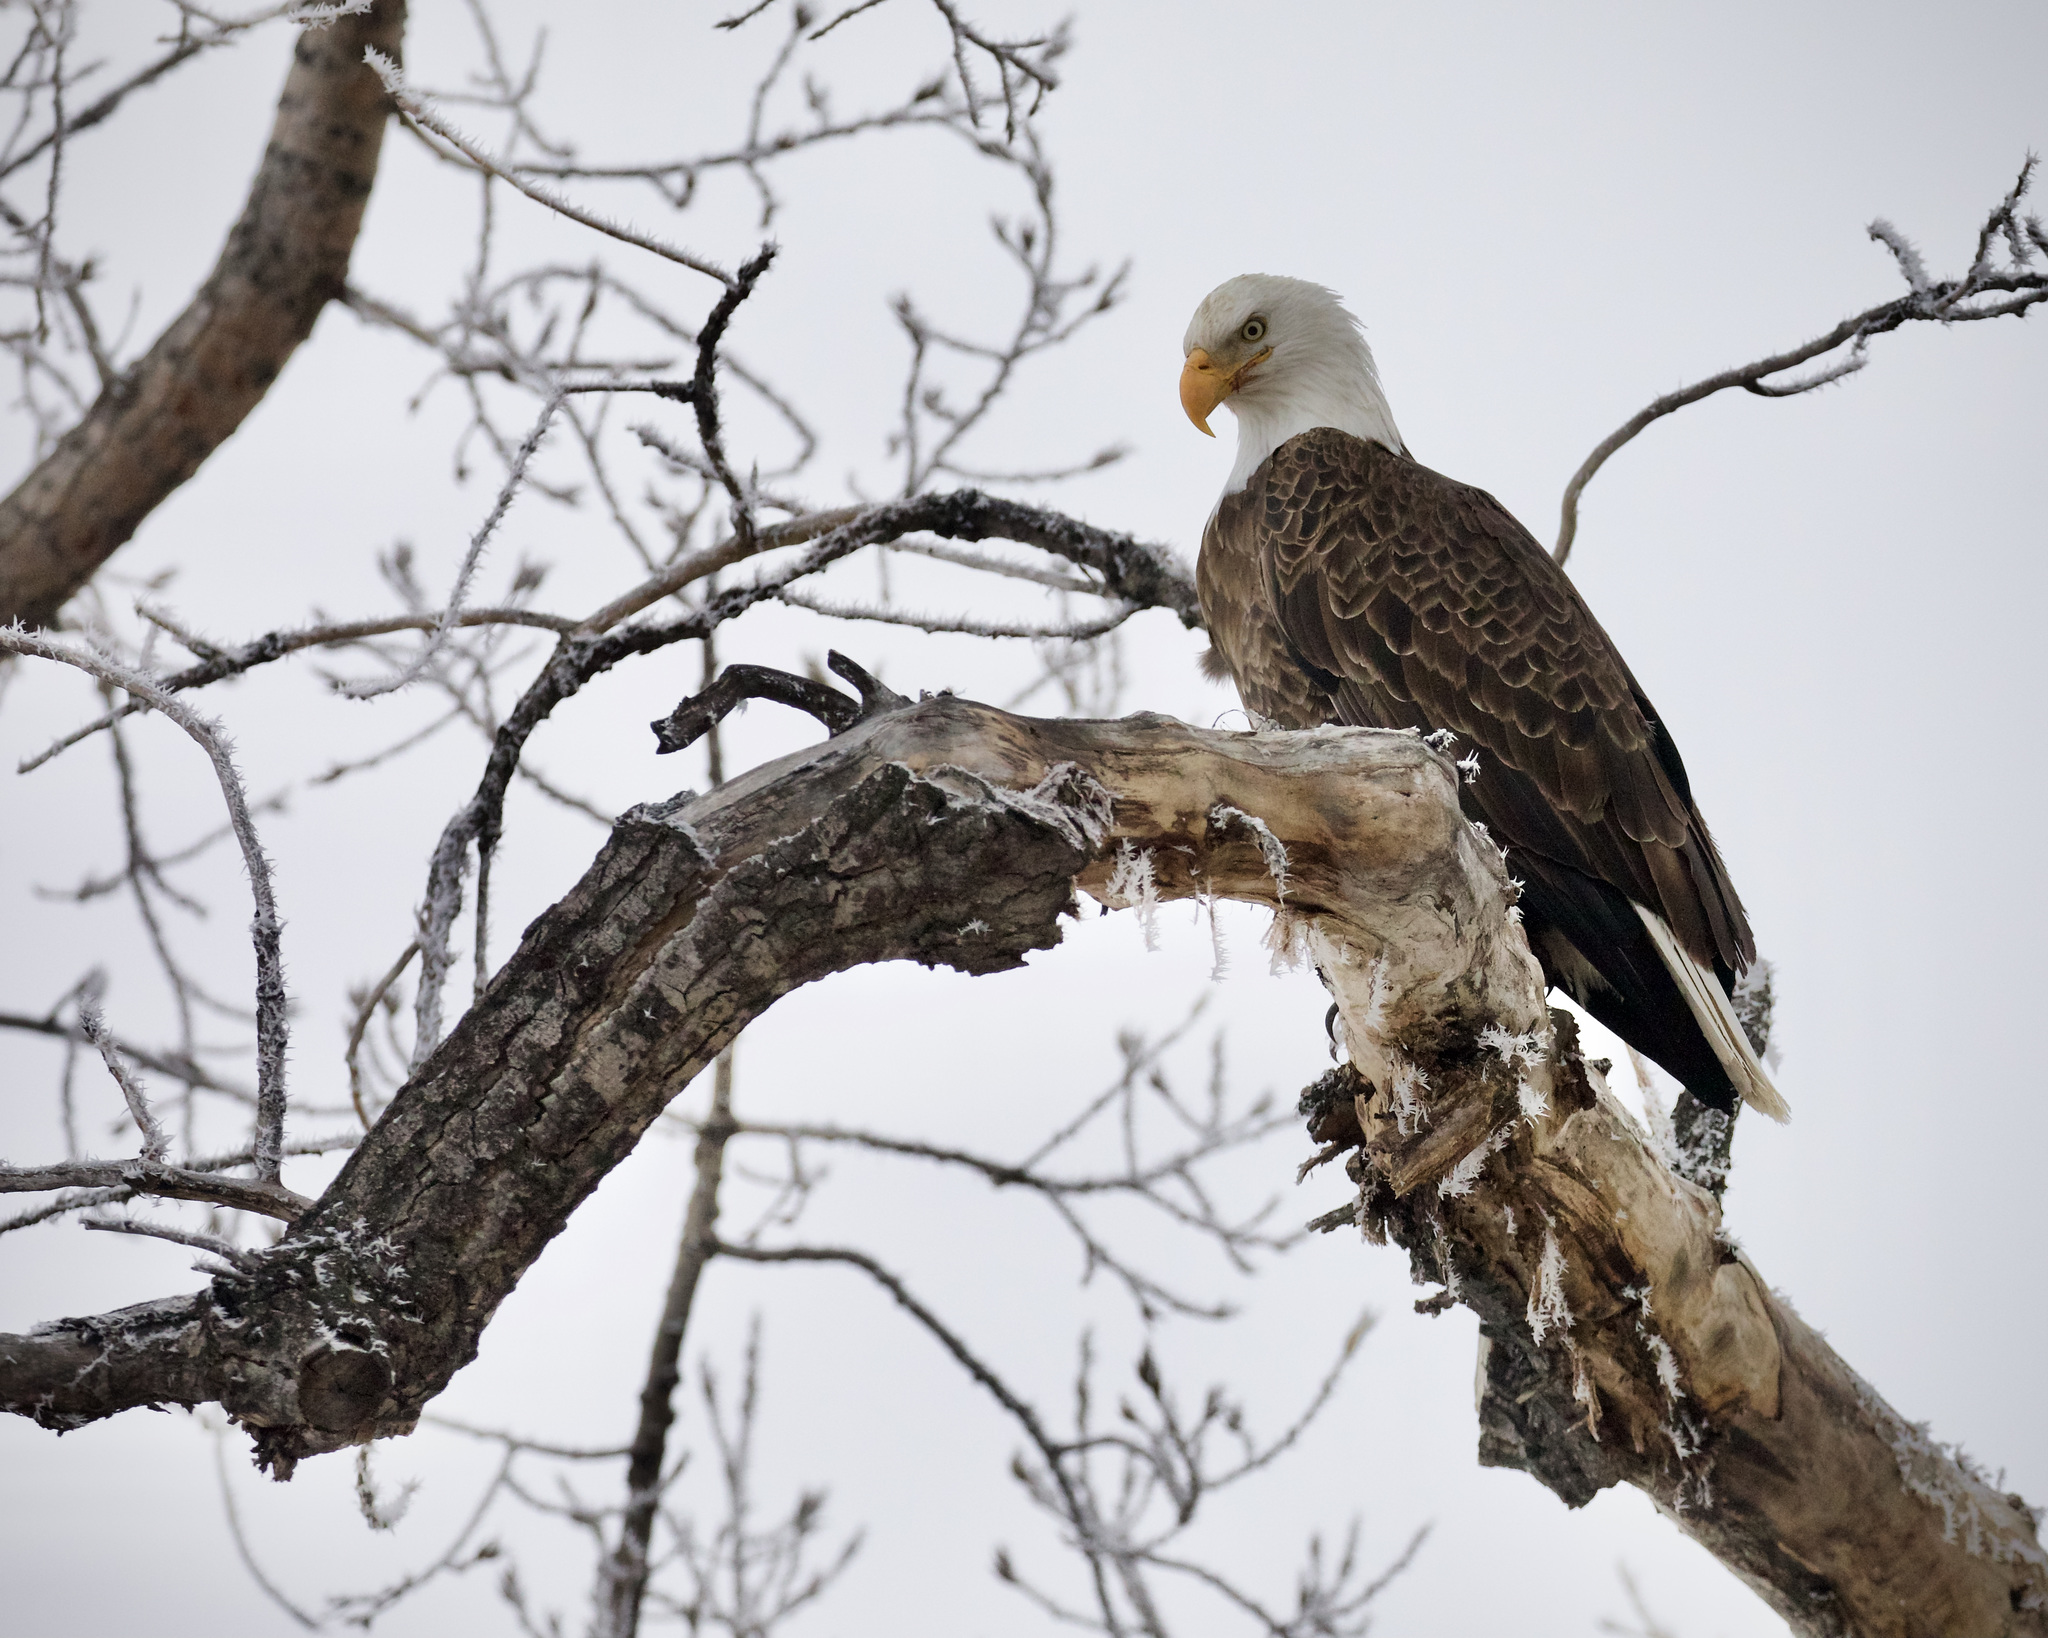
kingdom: Animalia
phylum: Chordata
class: Aves
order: Accipitriformes
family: Accipitridae
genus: Haliaeetus
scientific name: Haliaeetus leucocephalus
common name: Bald eagle
